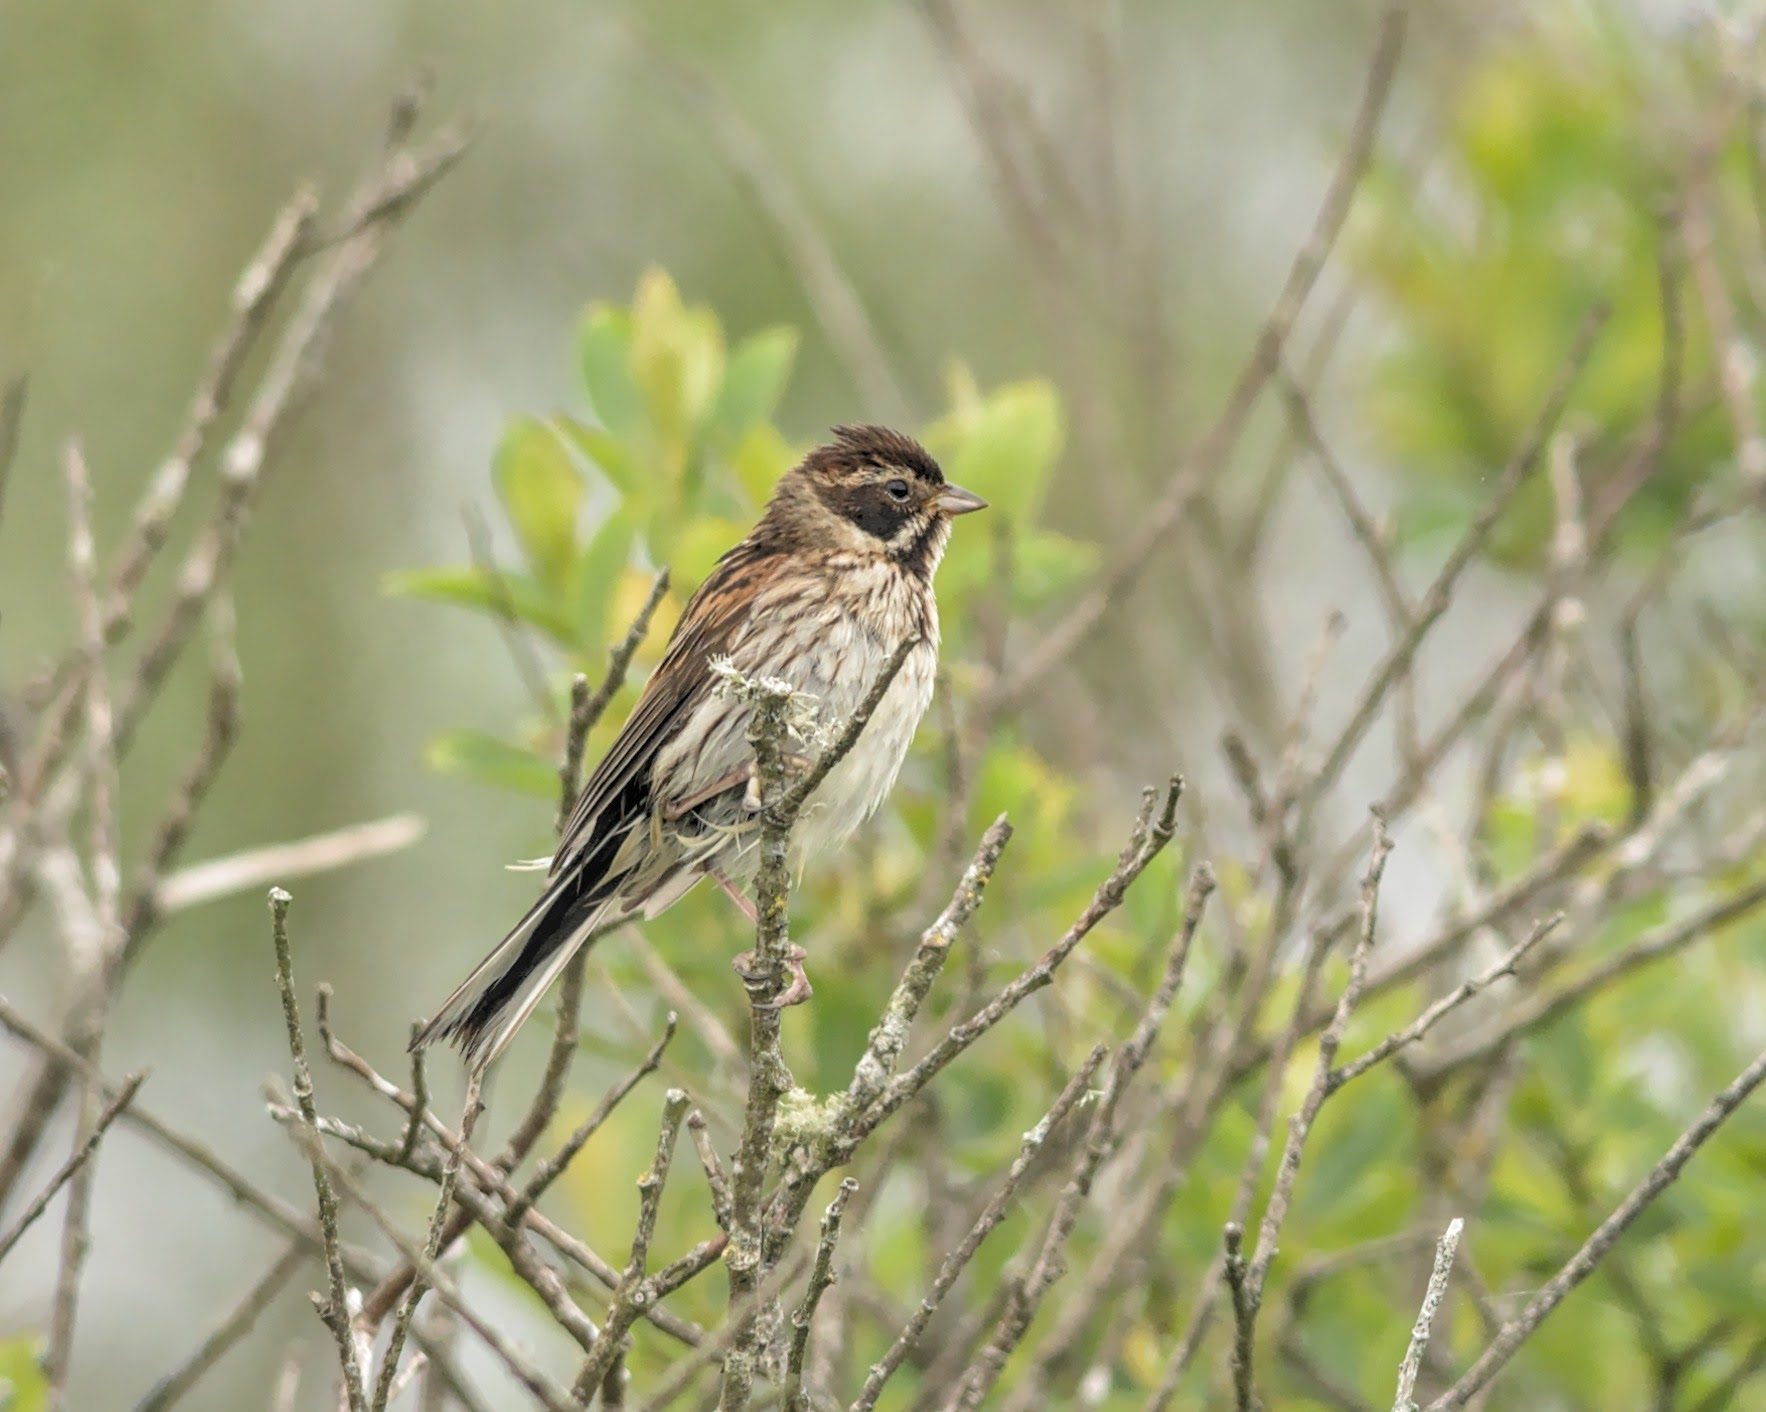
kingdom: Animalia
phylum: Chordata
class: Aves
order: Passeriformes
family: Emberizidae
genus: Emberiza
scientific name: Emberiza schoeniclus
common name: Reed bunting
